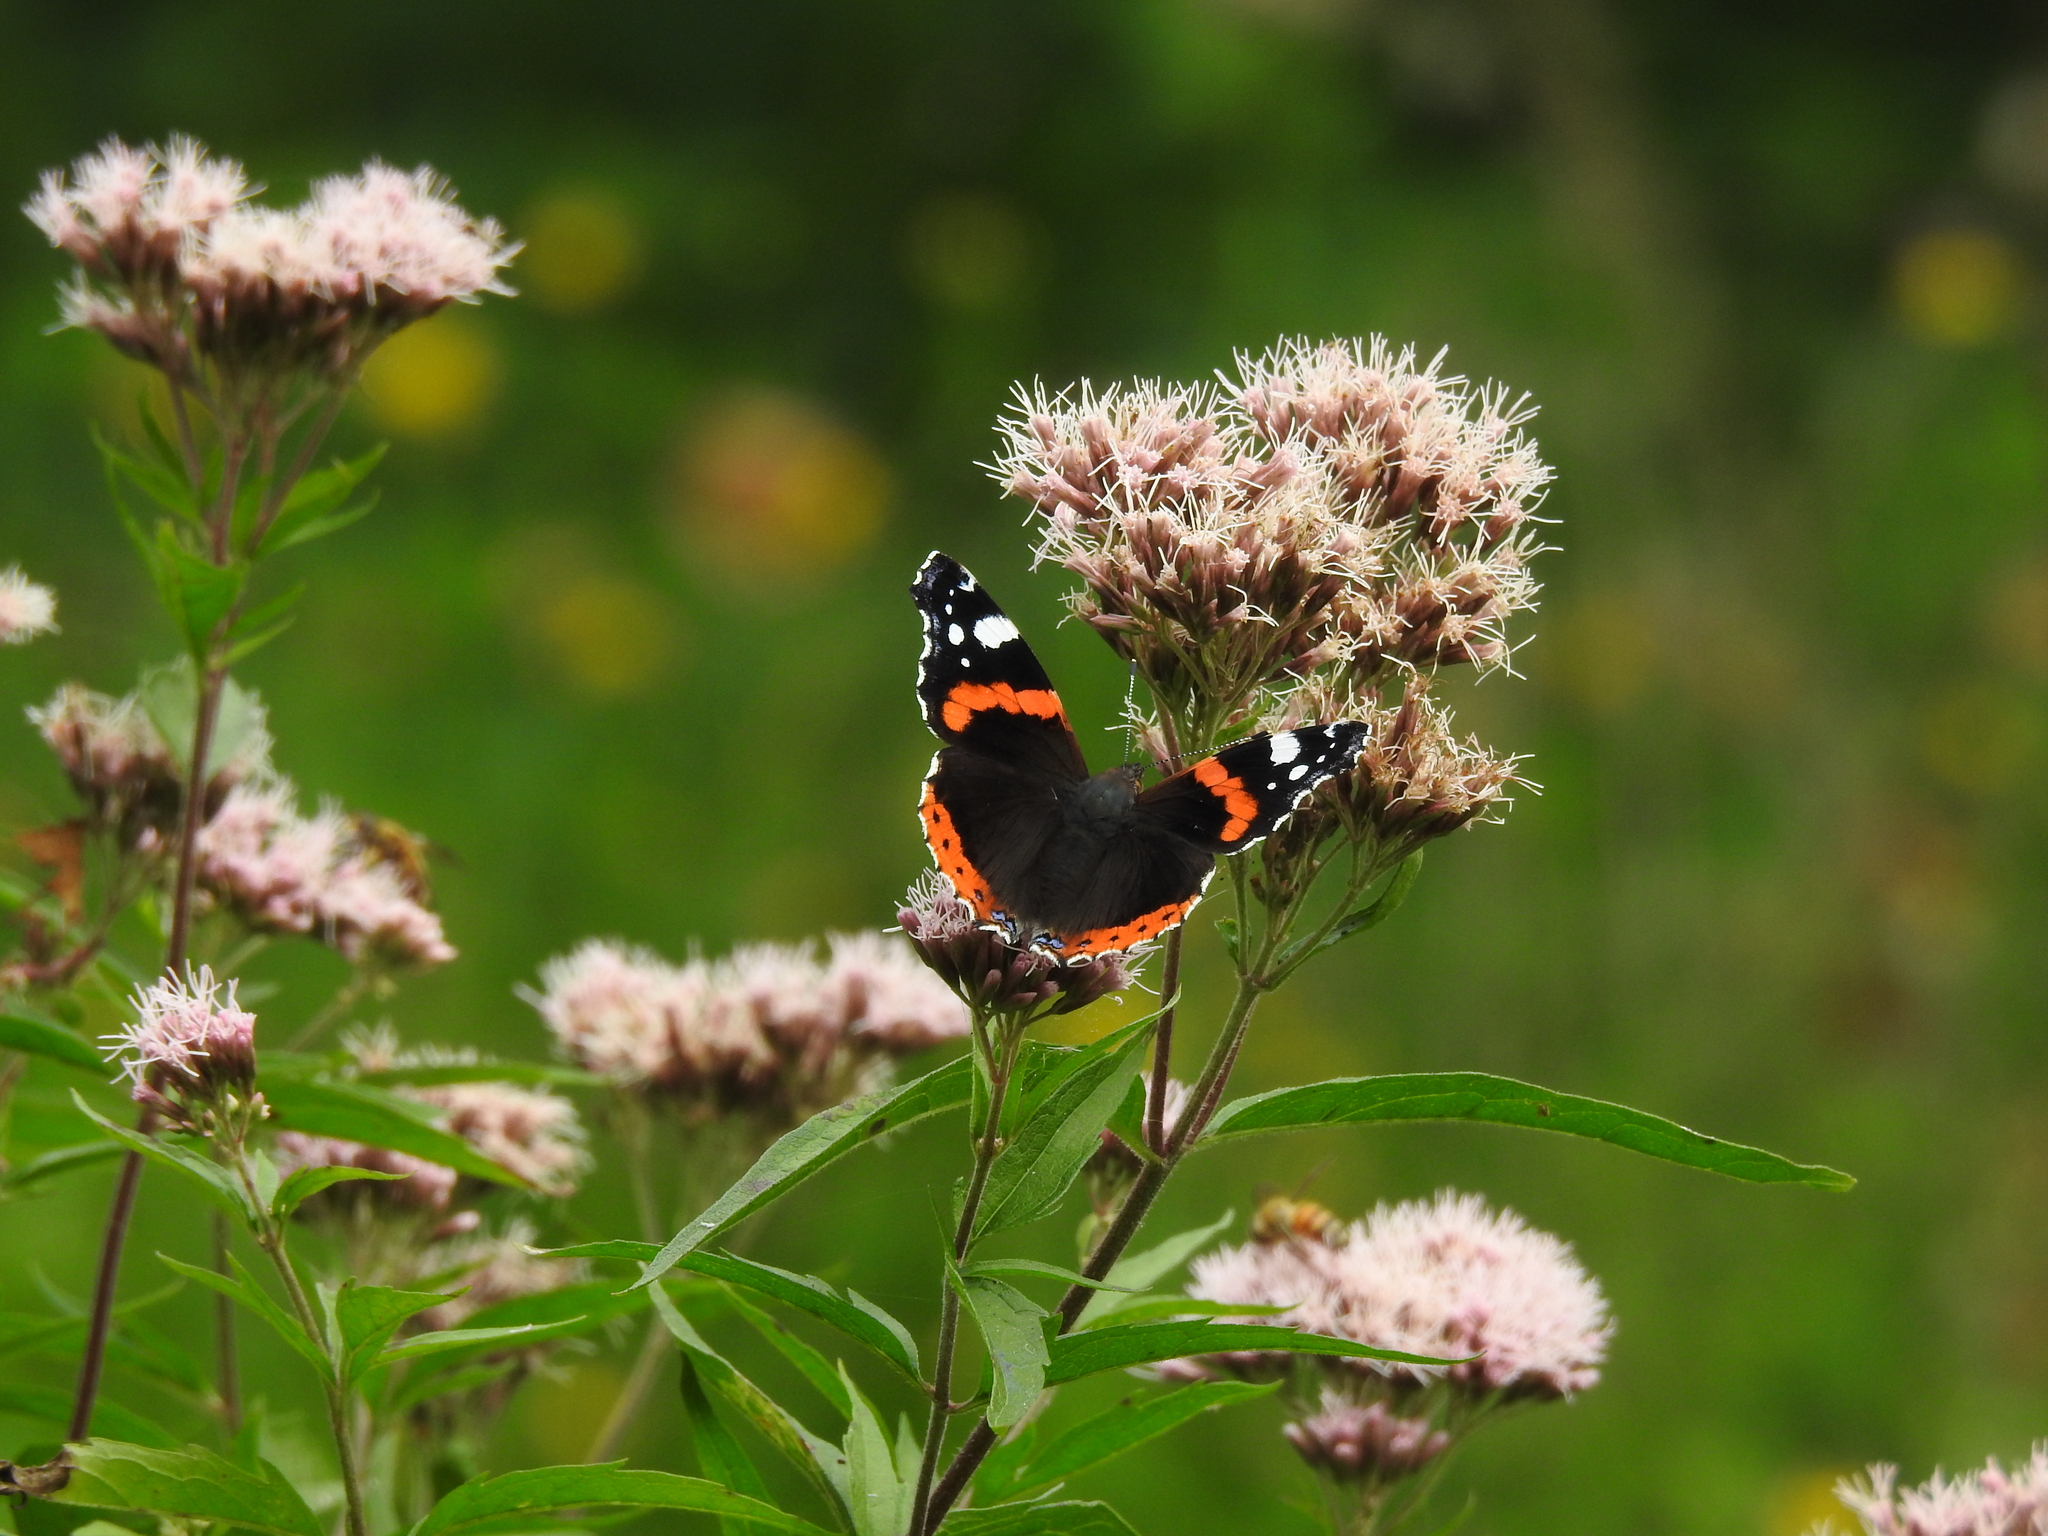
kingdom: Animalia
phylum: Arthropoda
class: Insecta
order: Lepidoptera
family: Nymphalidae
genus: Vanessa
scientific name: Vanessa atalanta
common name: Red admiral
